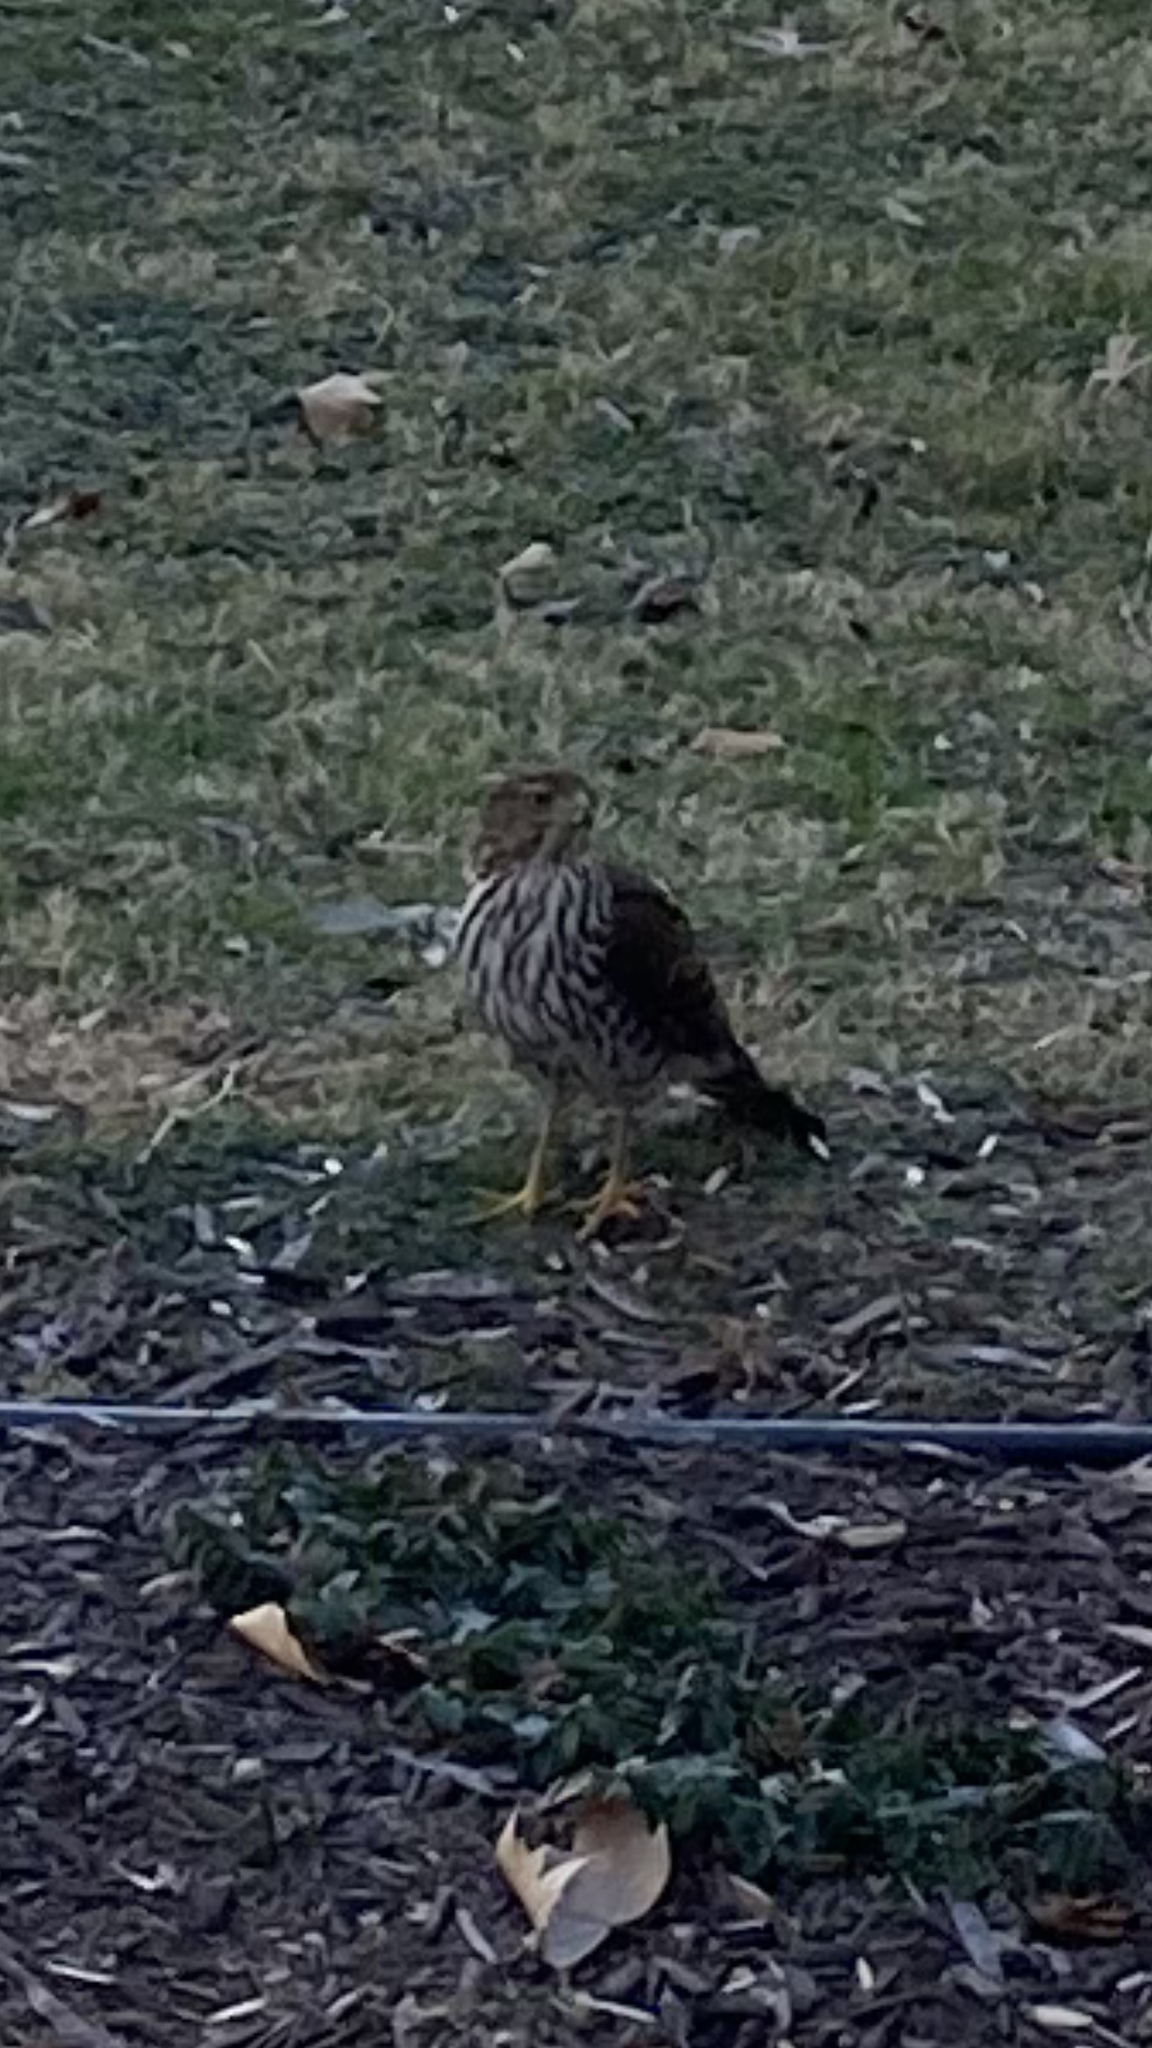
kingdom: Animalia
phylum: Chordata
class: Aves
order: Accipitriformes
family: Accipitridae
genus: Accipiter
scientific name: Accipiter cooperii
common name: Cooper's hawk
